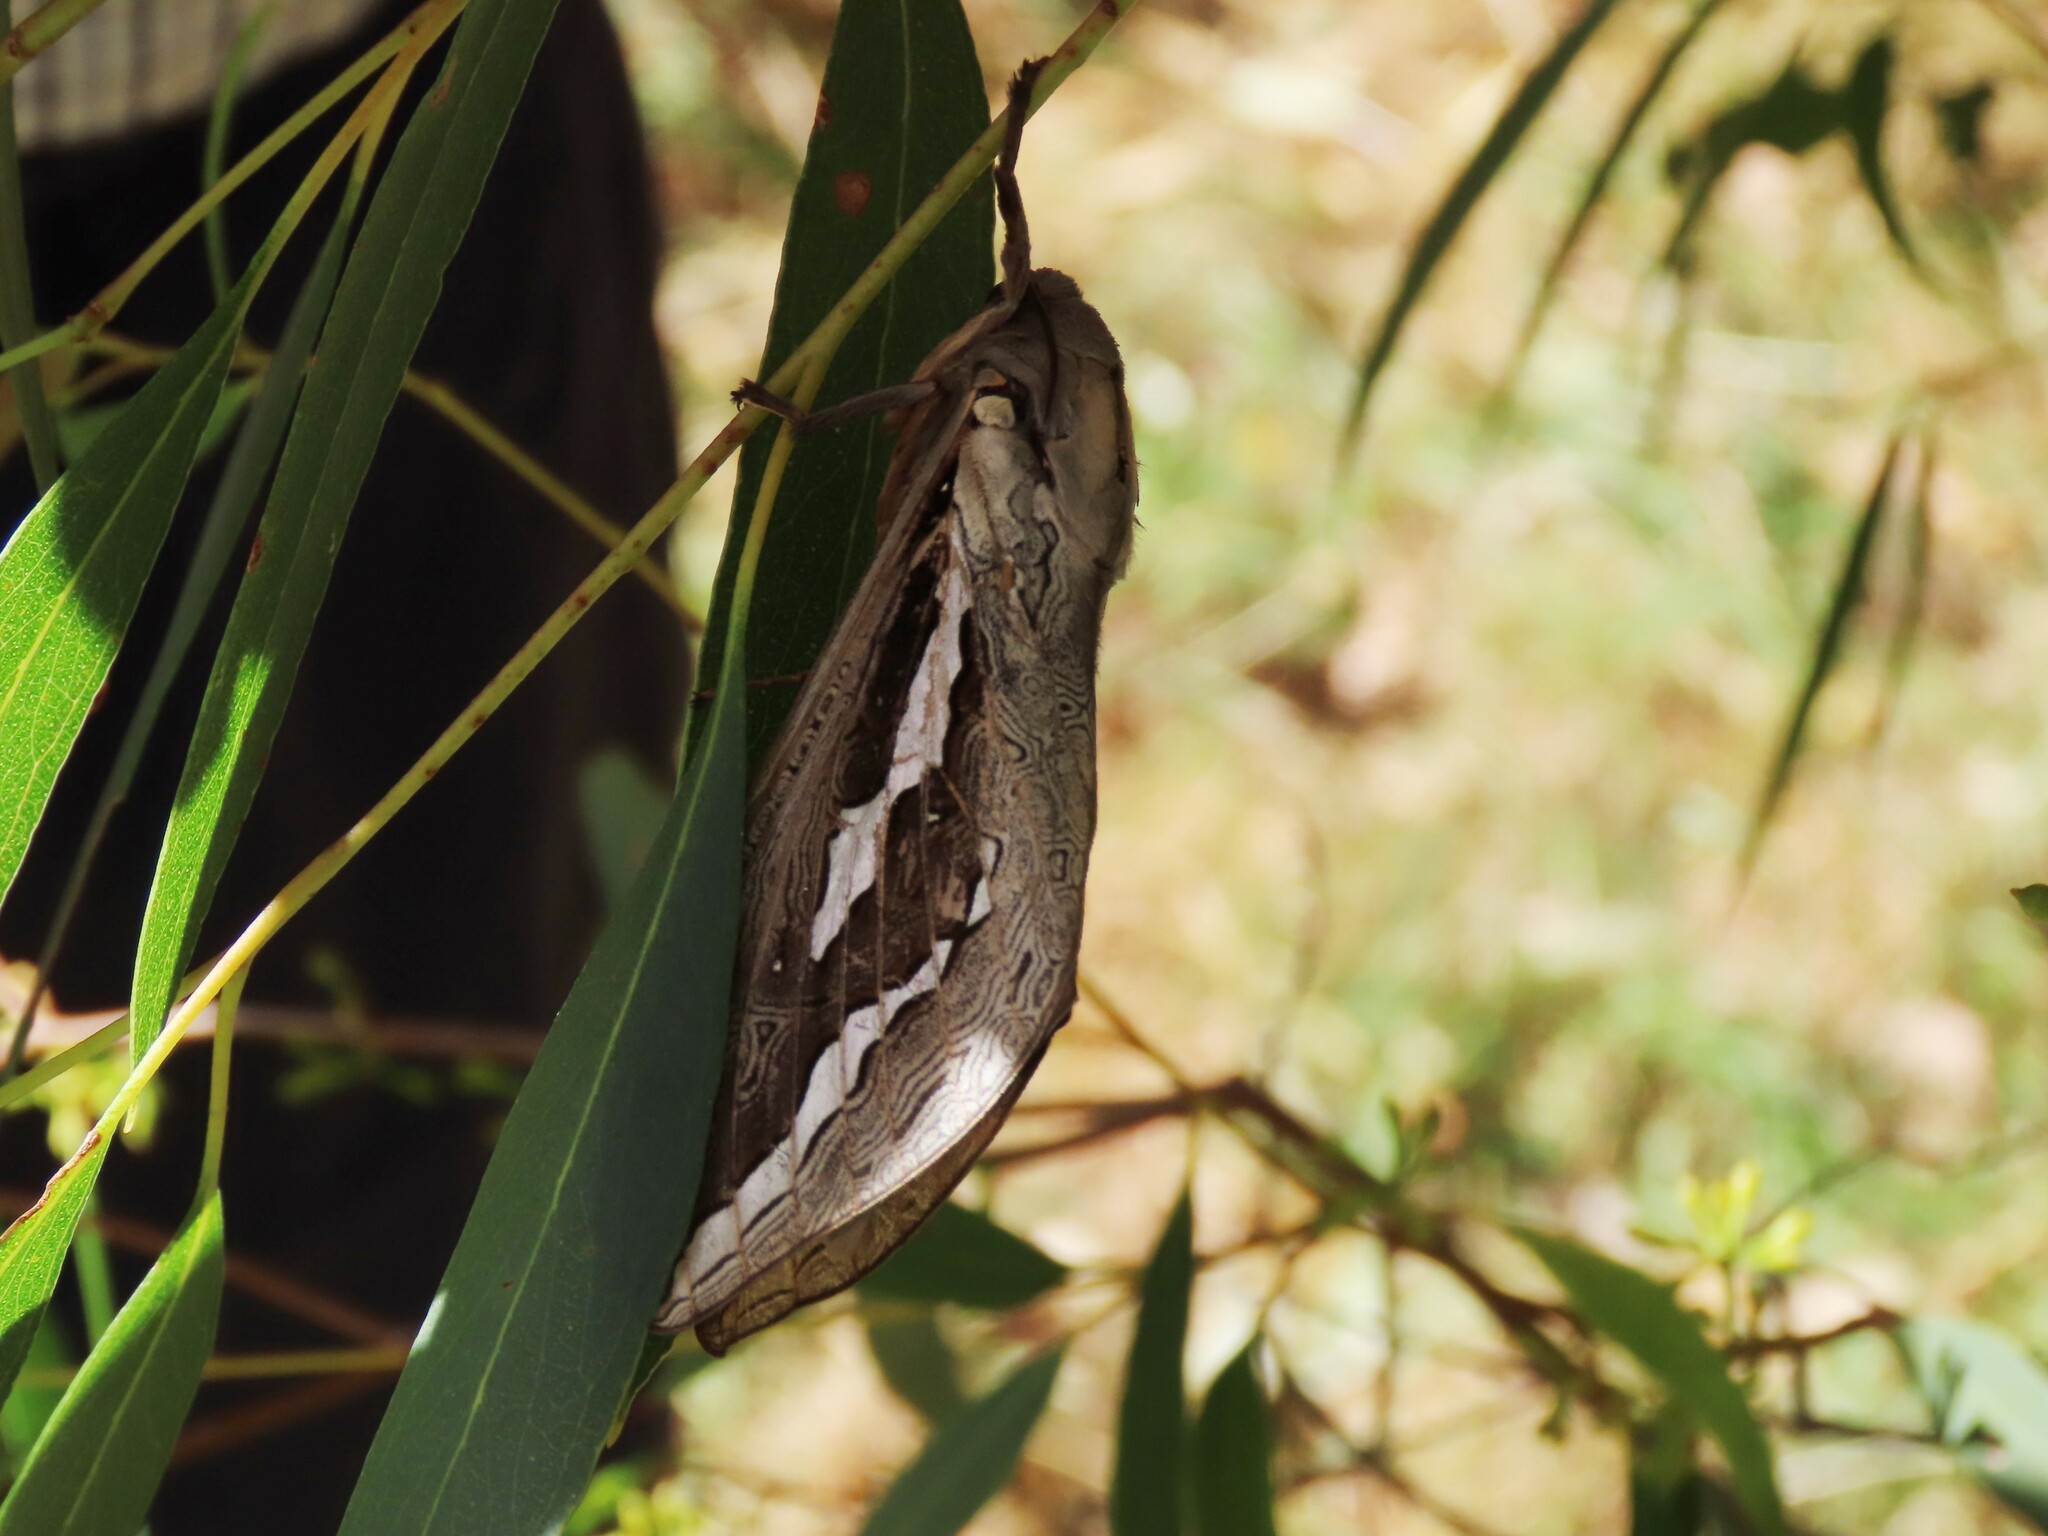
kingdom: Animalia
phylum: Arthropoda
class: Insecta
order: Lepidoptera
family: Hepialidae
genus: Abantiades
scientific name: Abantiades labyrinthicus
